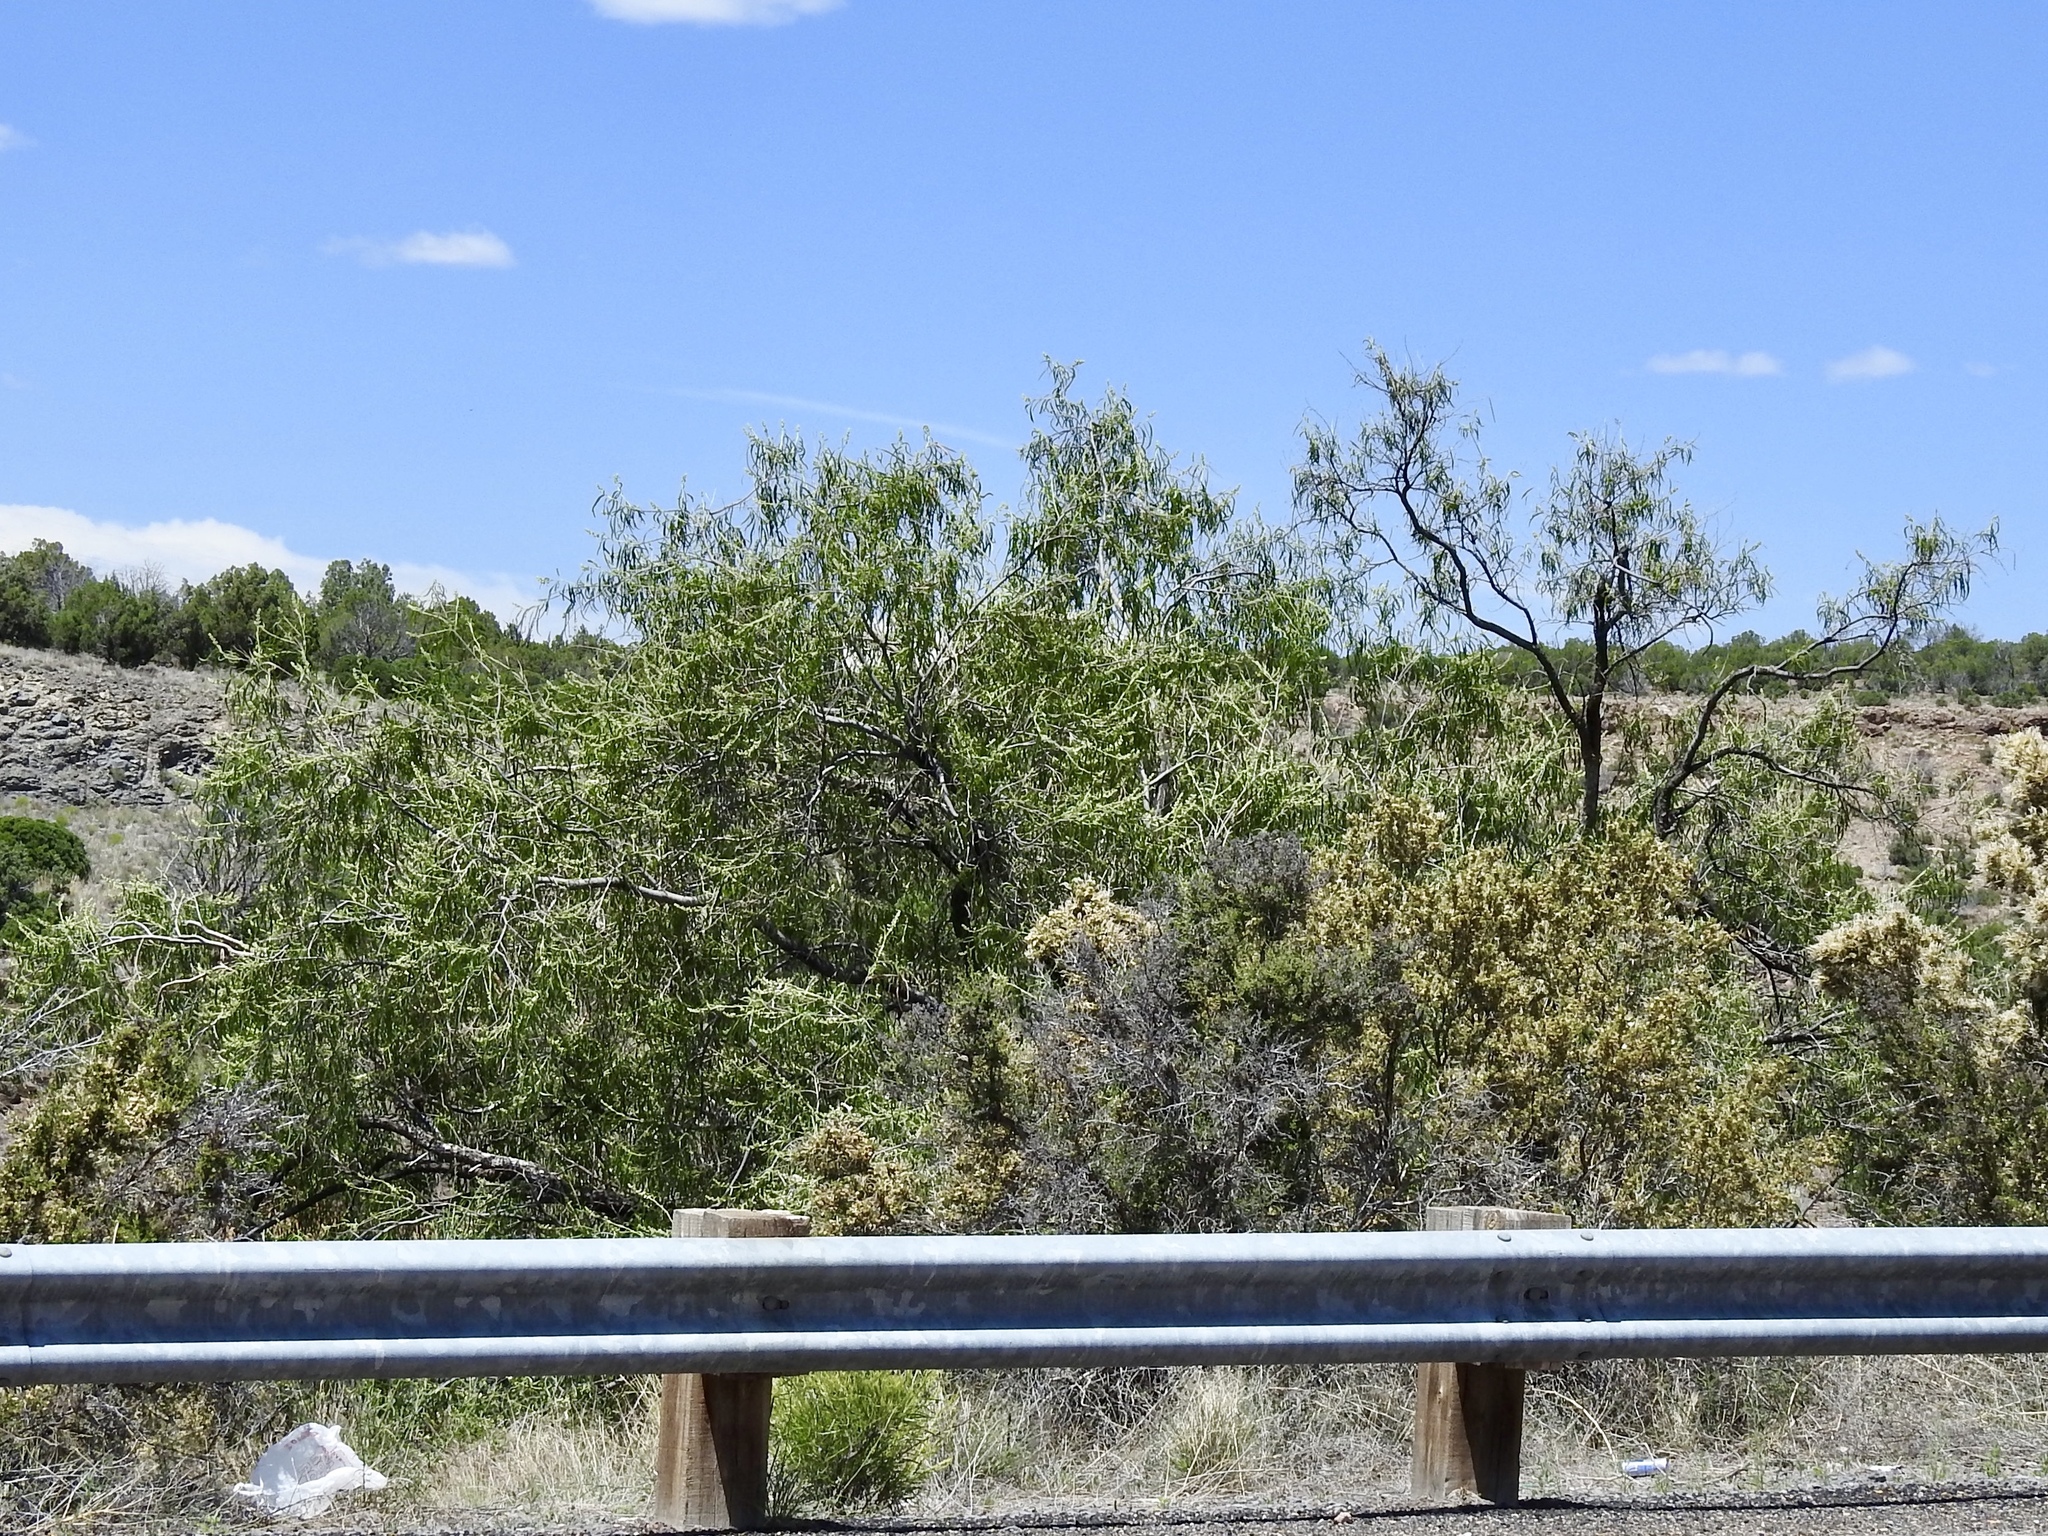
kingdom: Plantae
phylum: Tracheophyta
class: Magnoliopsida
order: Lamiales
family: Bignoniaceae
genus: Chilopsis
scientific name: Chilopsis linearis
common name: Desert-willow
